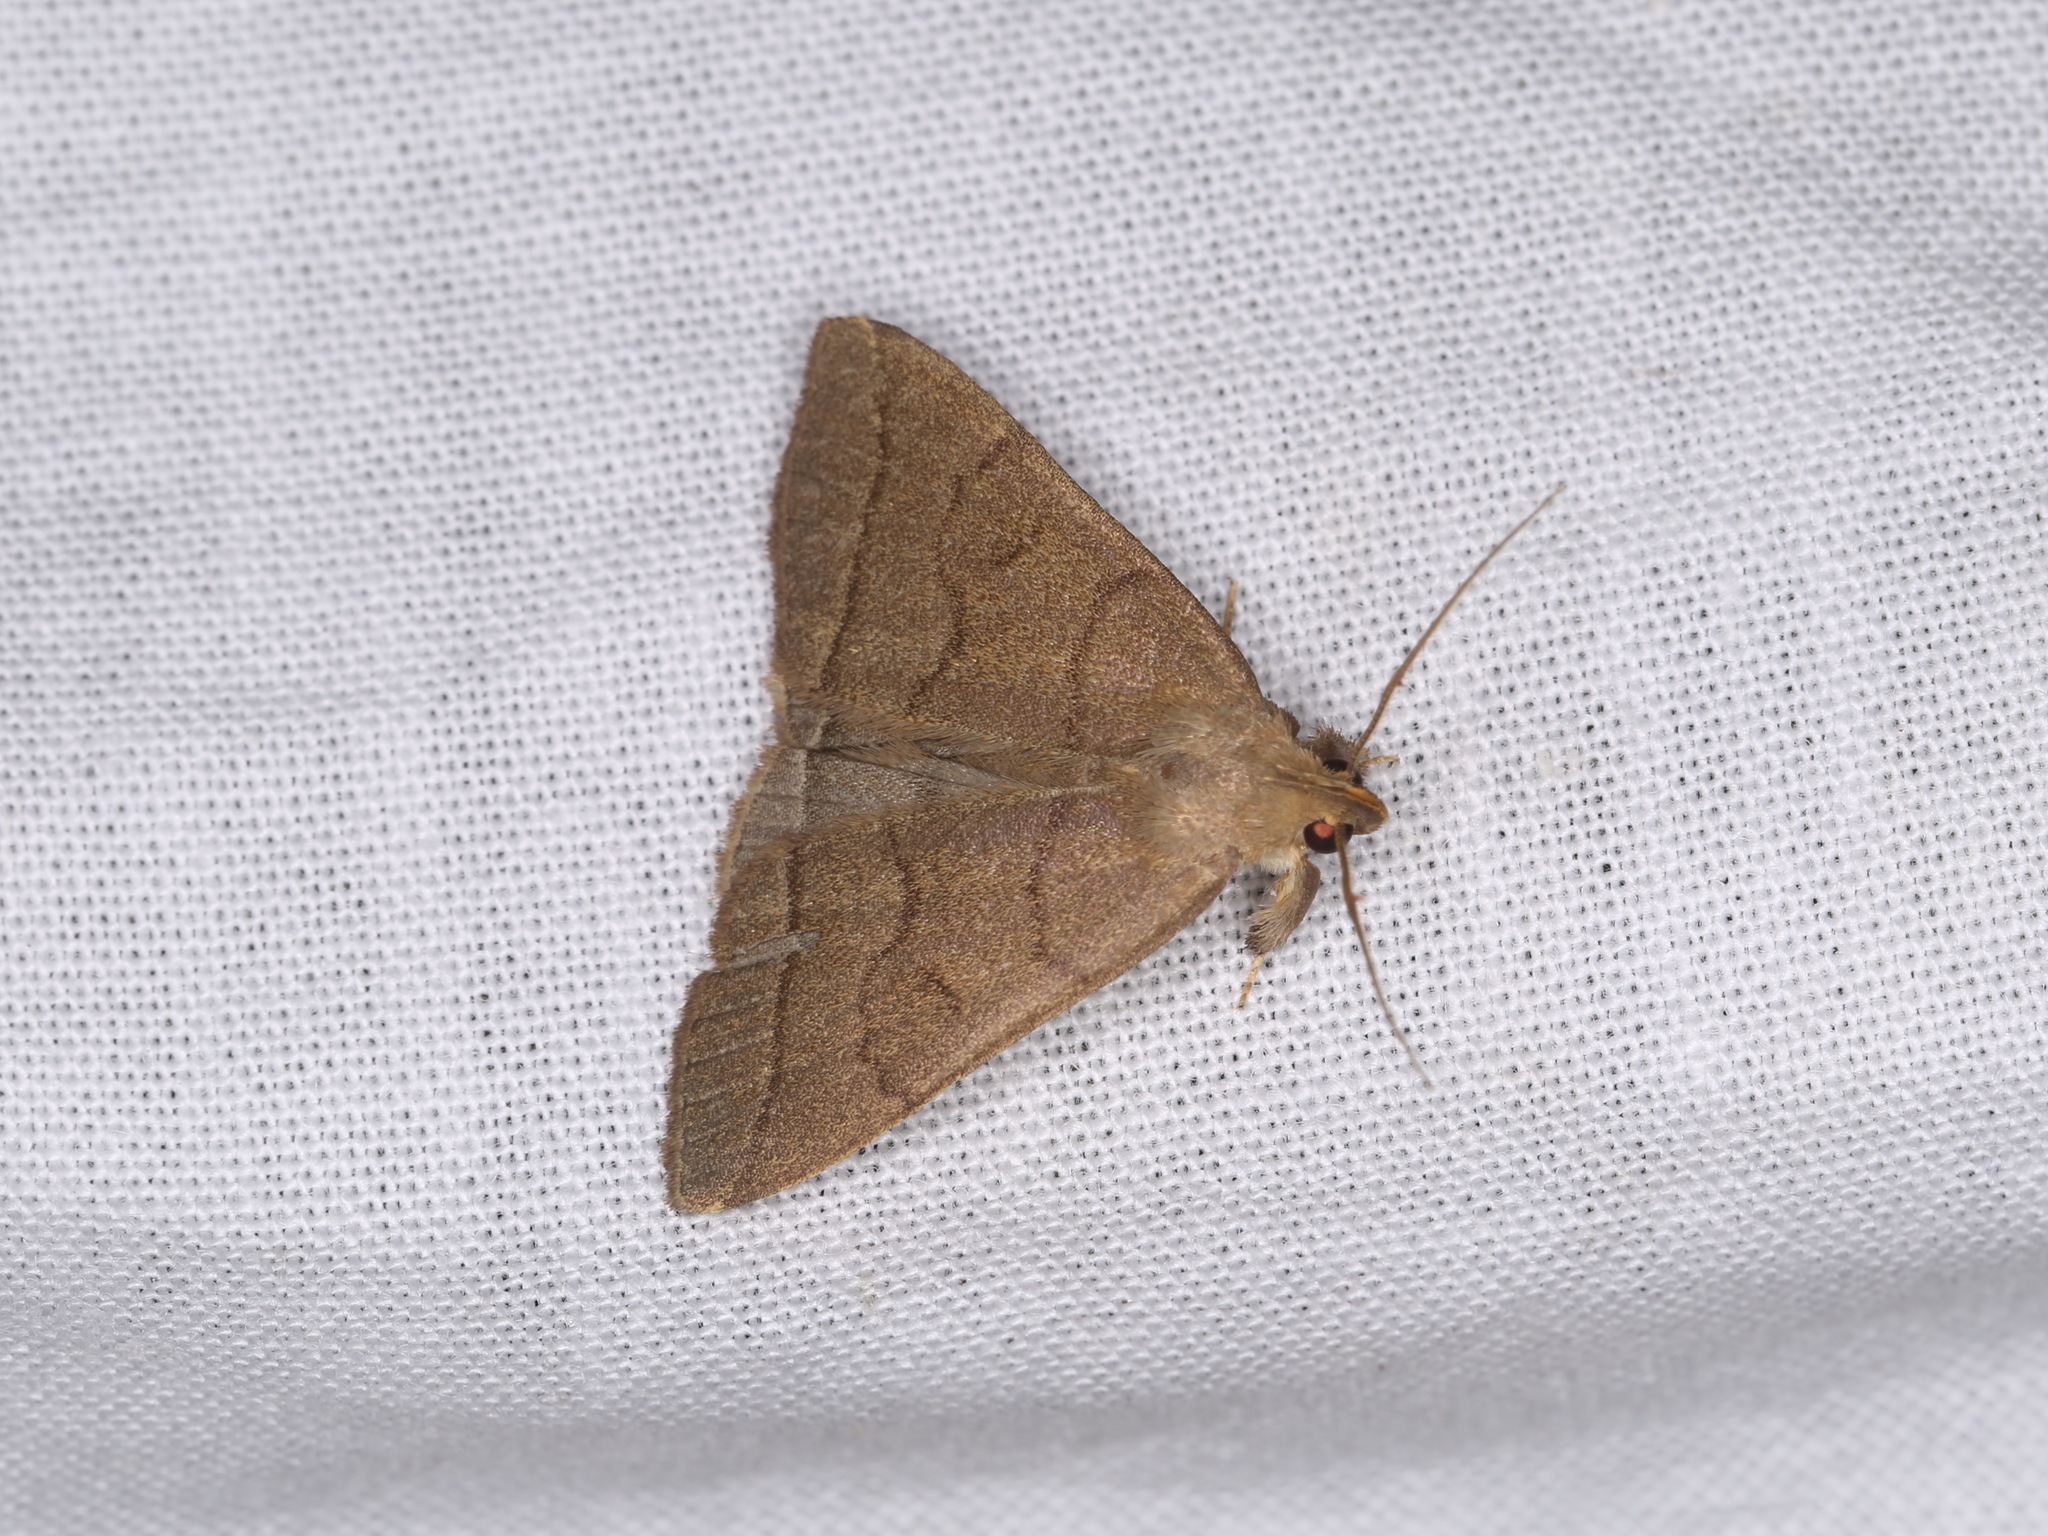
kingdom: Animalia
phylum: Arthropoda
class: Insecta
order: Lepidoptera
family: Erebidae
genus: Herminia
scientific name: Herminia tarsipennalis
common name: Fan-foot
